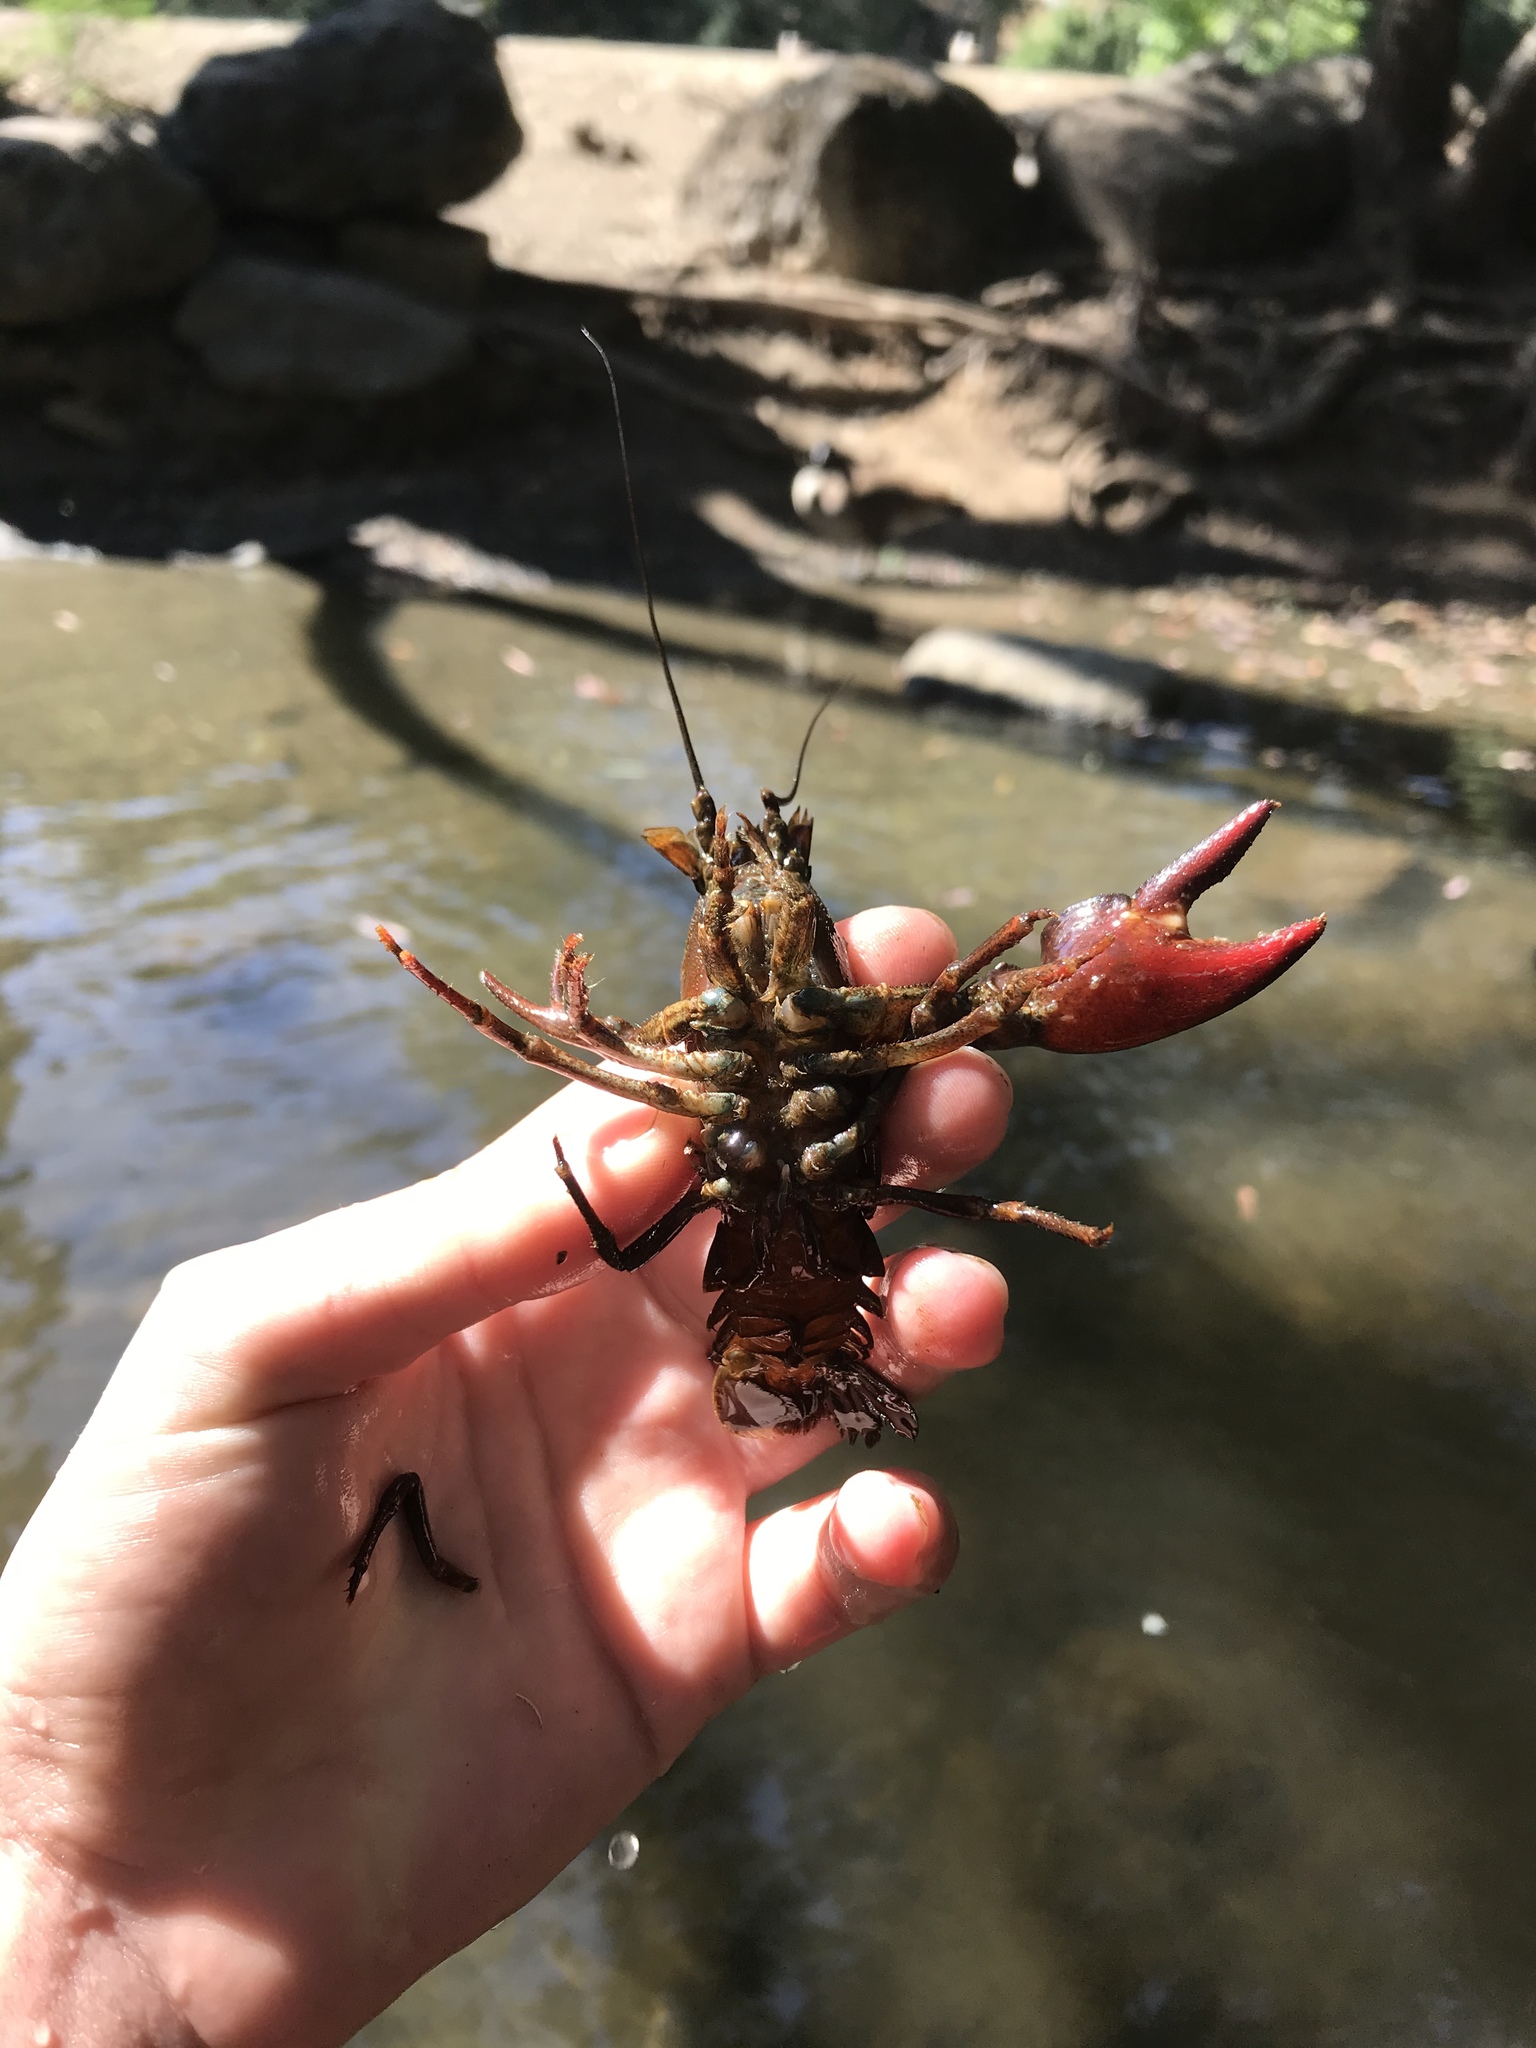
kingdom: Animalia
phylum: Arthropoda
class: Malacostraca
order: Decapoda
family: Astacidae
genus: Pacifastacus
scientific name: Pacifastacus leniusculus
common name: Signal crayfish
